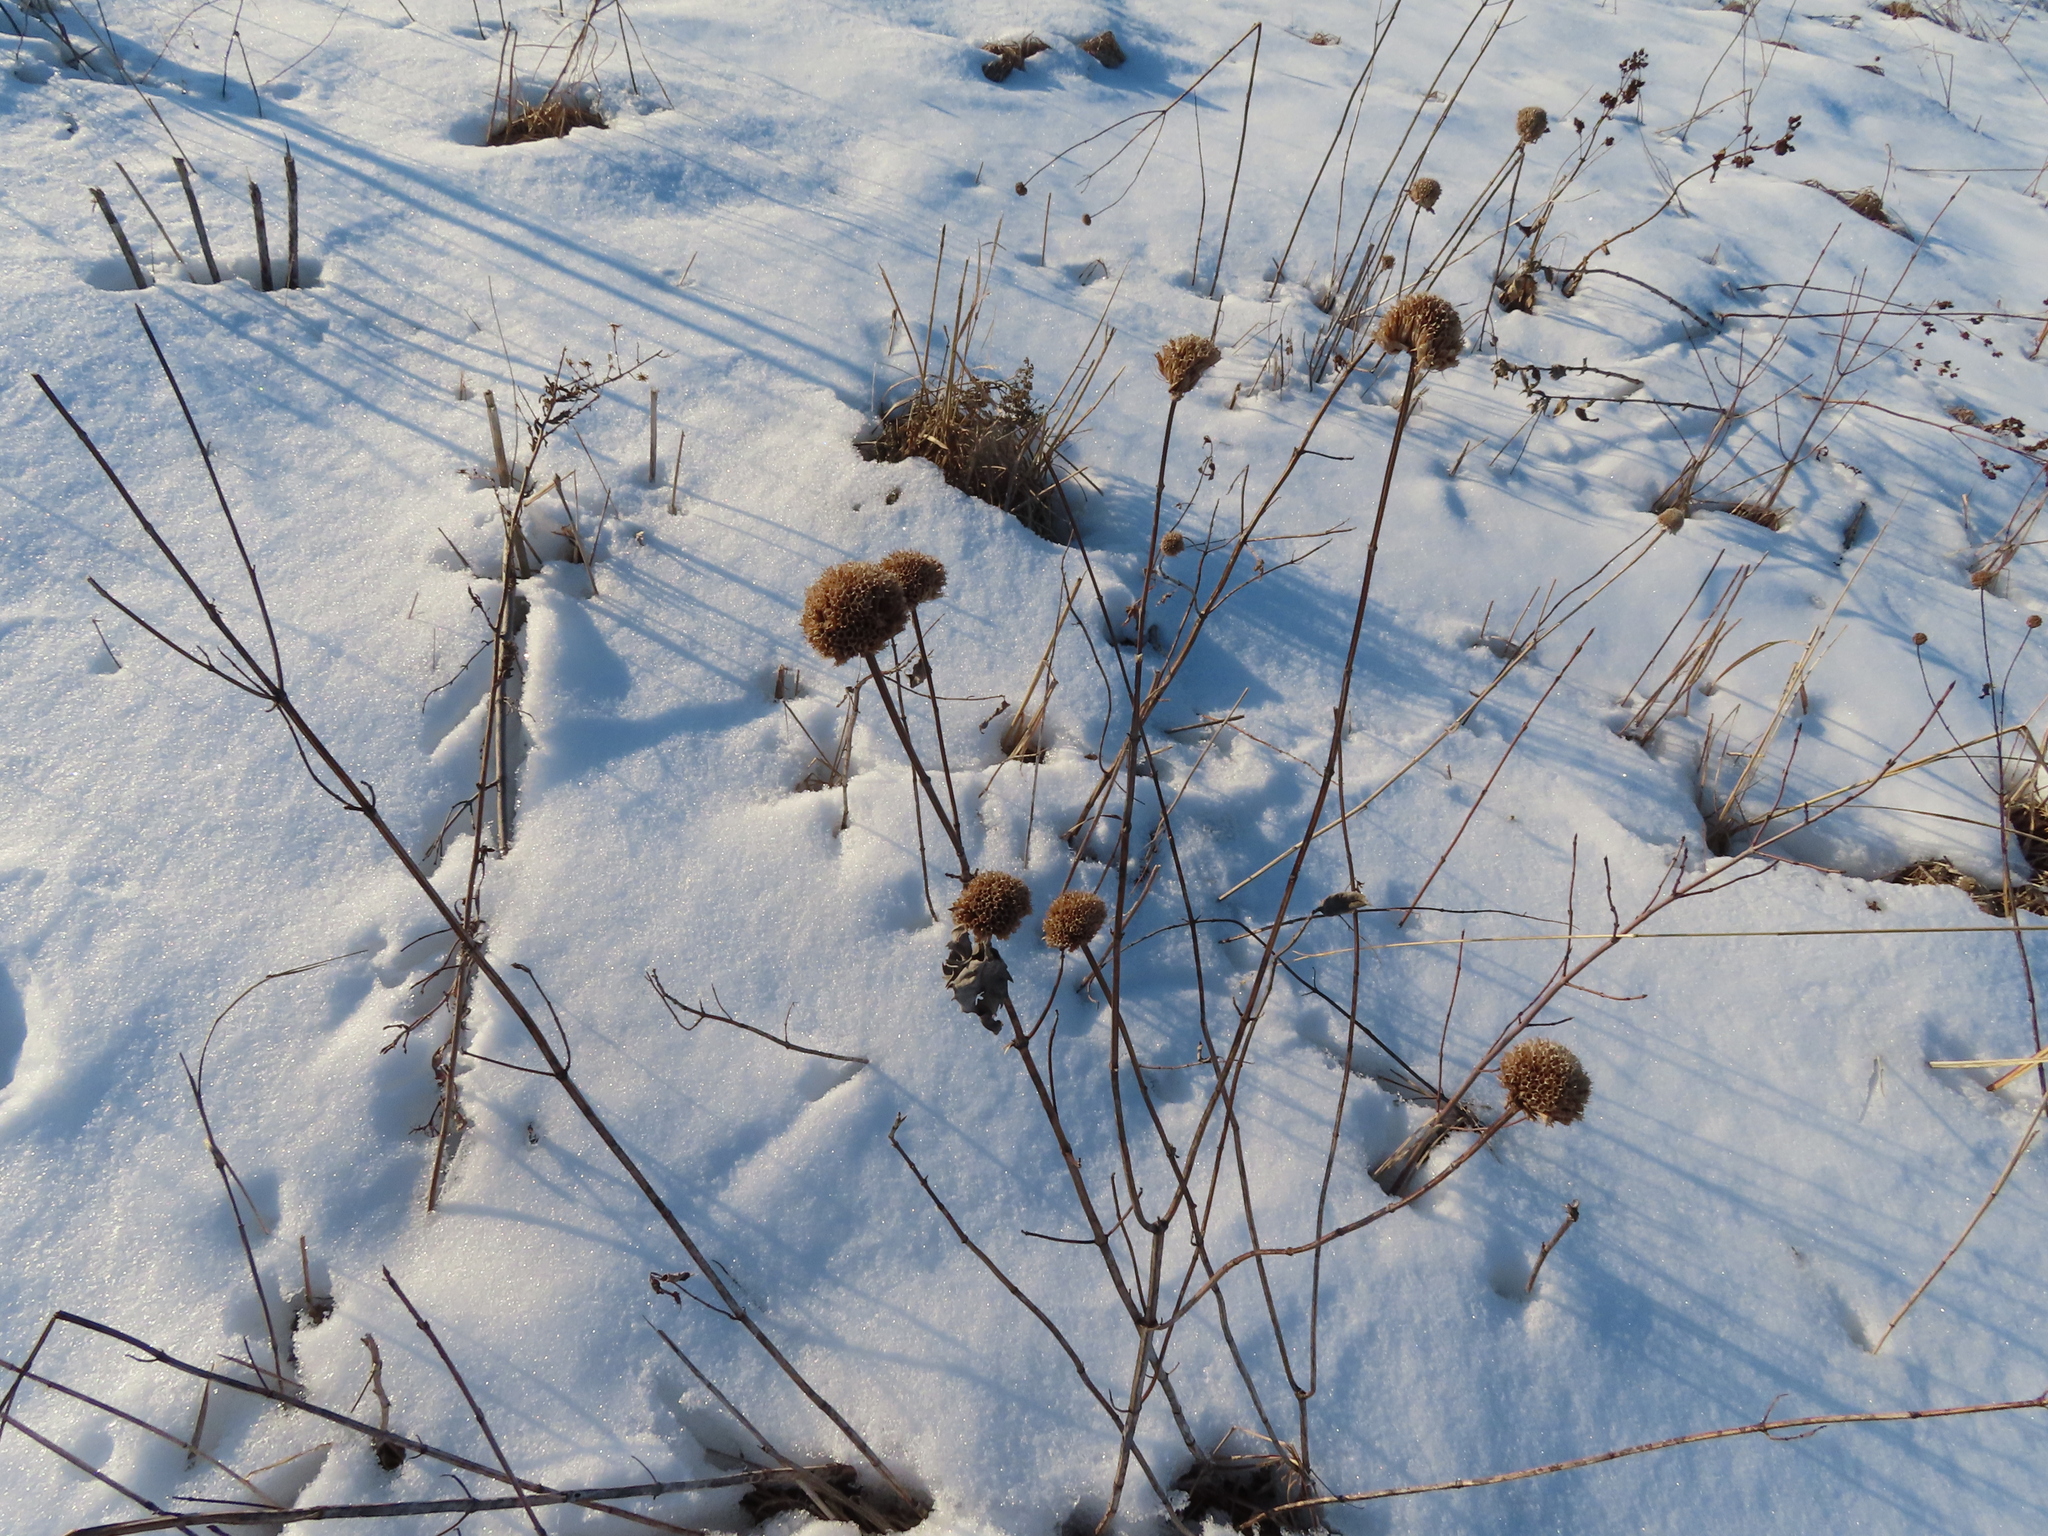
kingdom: Plantae
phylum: Tracheophyta
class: Magnoliopsida
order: Lamiales
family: Lamiaceae
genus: Monarda
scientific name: Monarda fistulosa
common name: Purple beebalm
